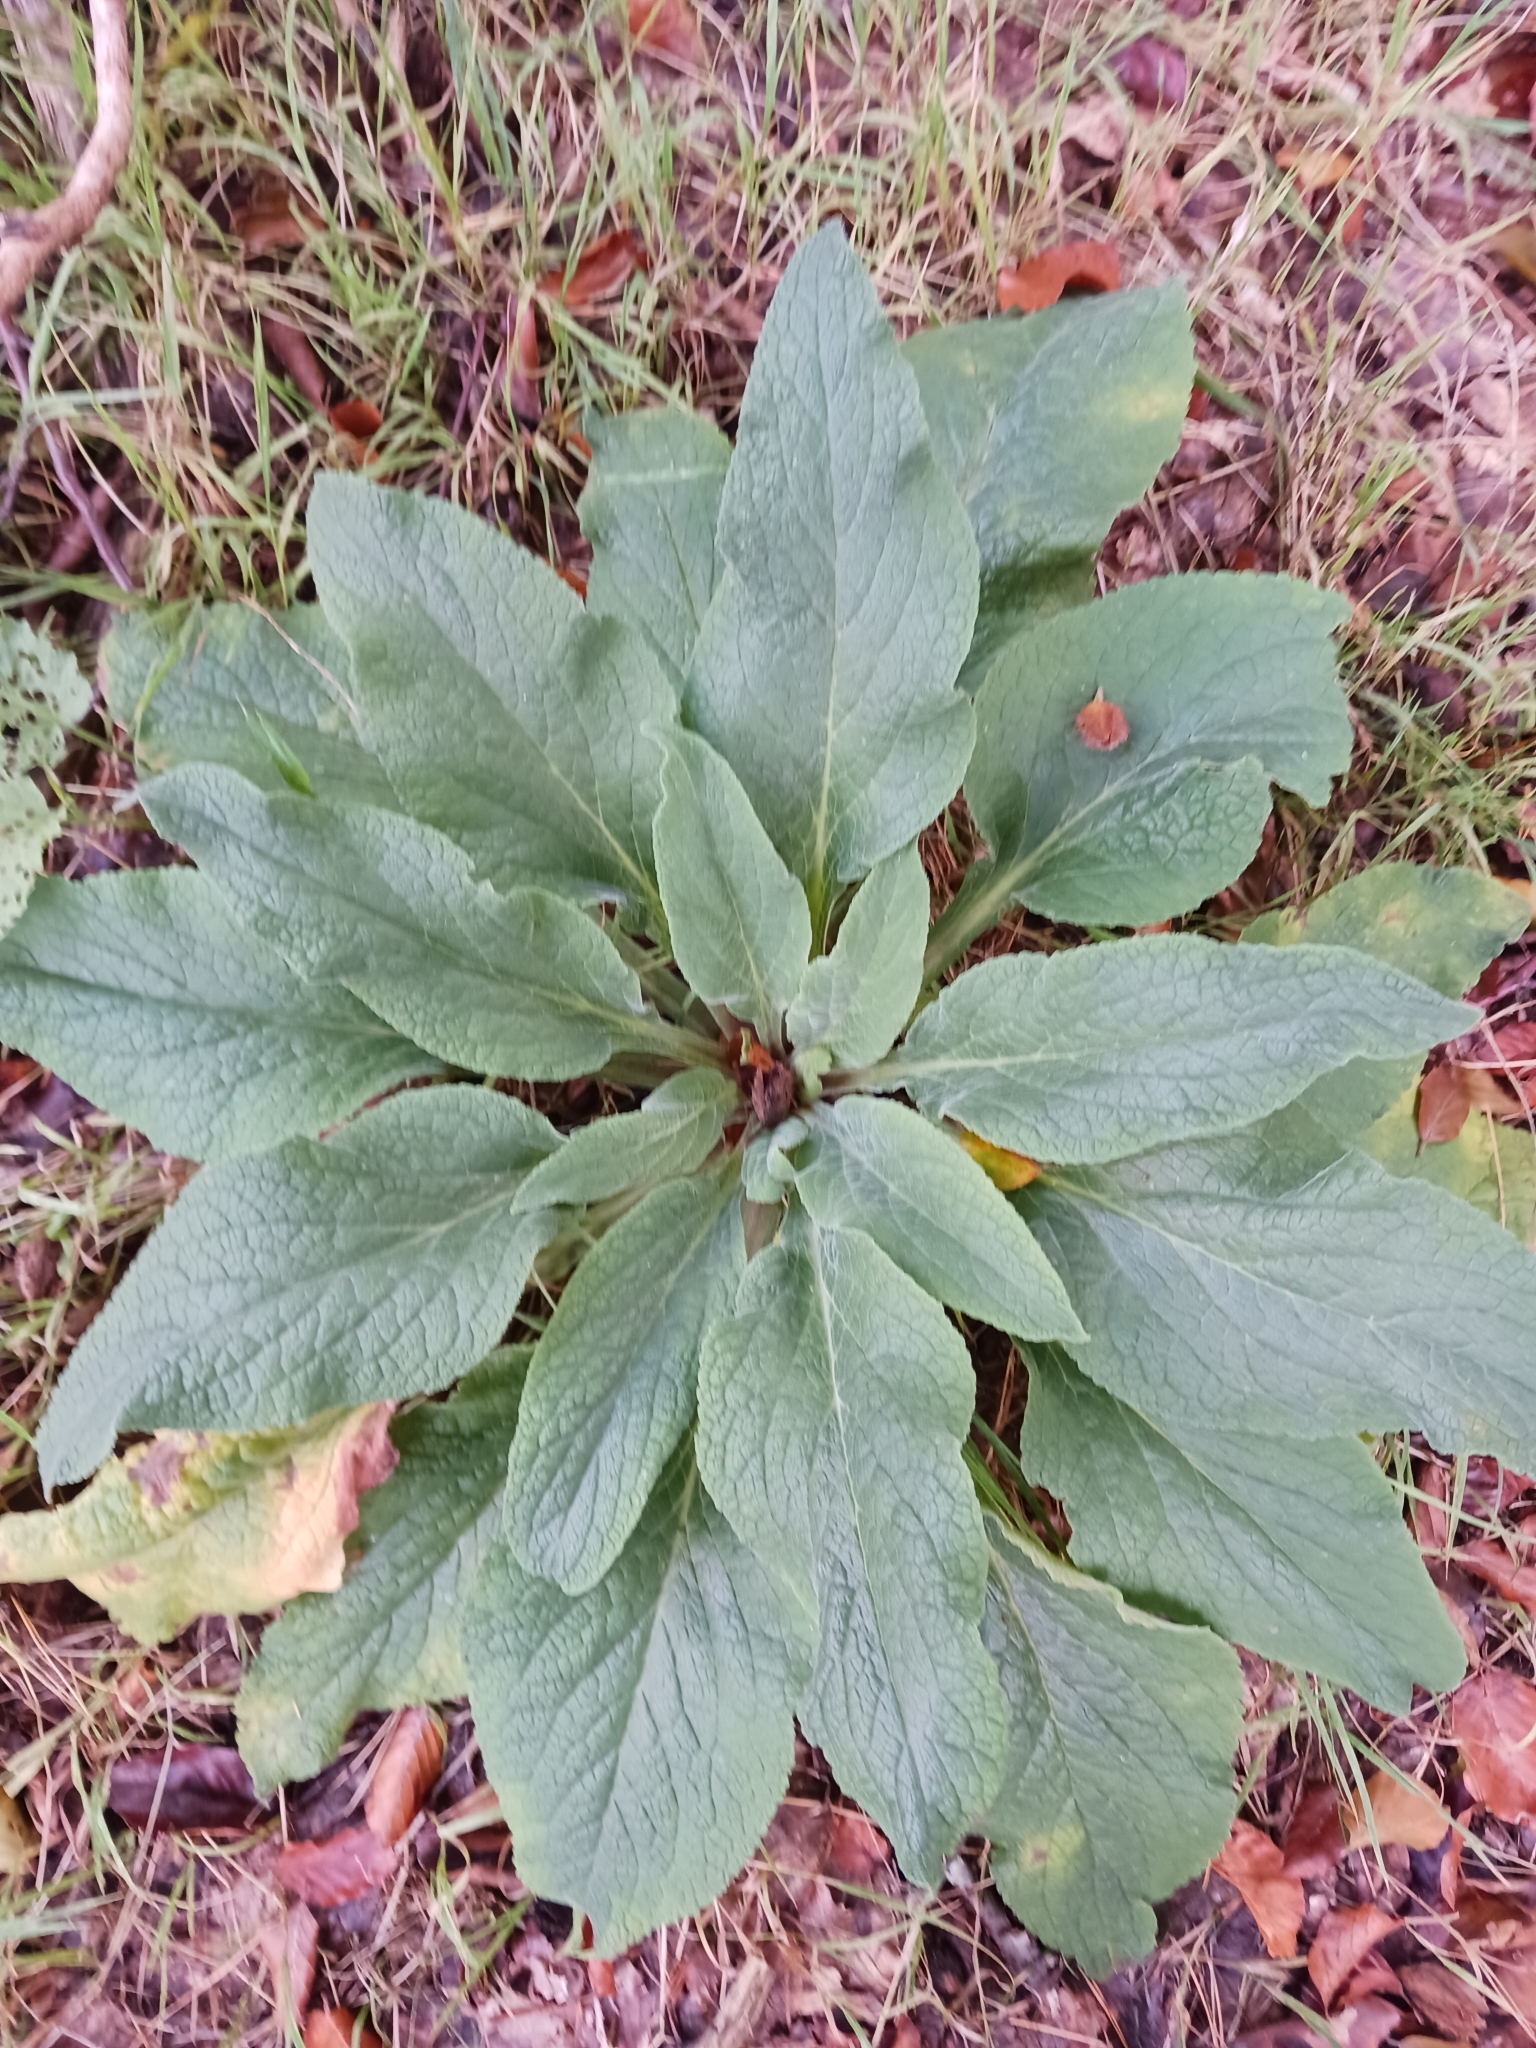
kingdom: Plantae
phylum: Tracheophyta
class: Magnoliopsida
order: Lamiales
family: Plantaginaceae
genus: Digitalis
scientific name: Digitalis purpurea
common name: Foxglove
